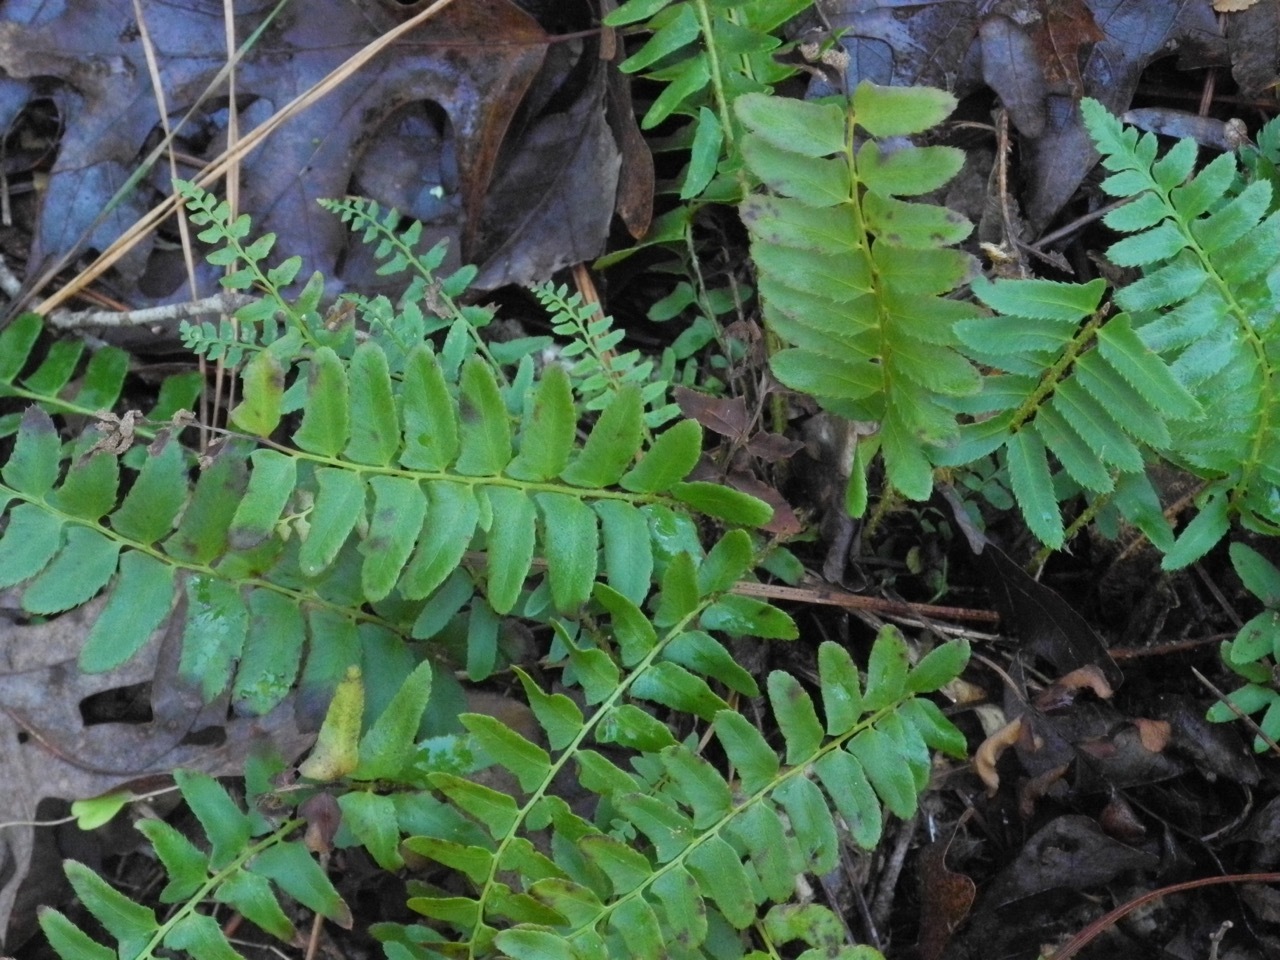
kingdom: Plantae
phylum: Tracheophyta
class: Polypodiopsida
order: Polypodiales
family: Dryopteridaceae
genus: Polystichum
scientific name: Polystichum acrostichoides
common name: Christmas fern
